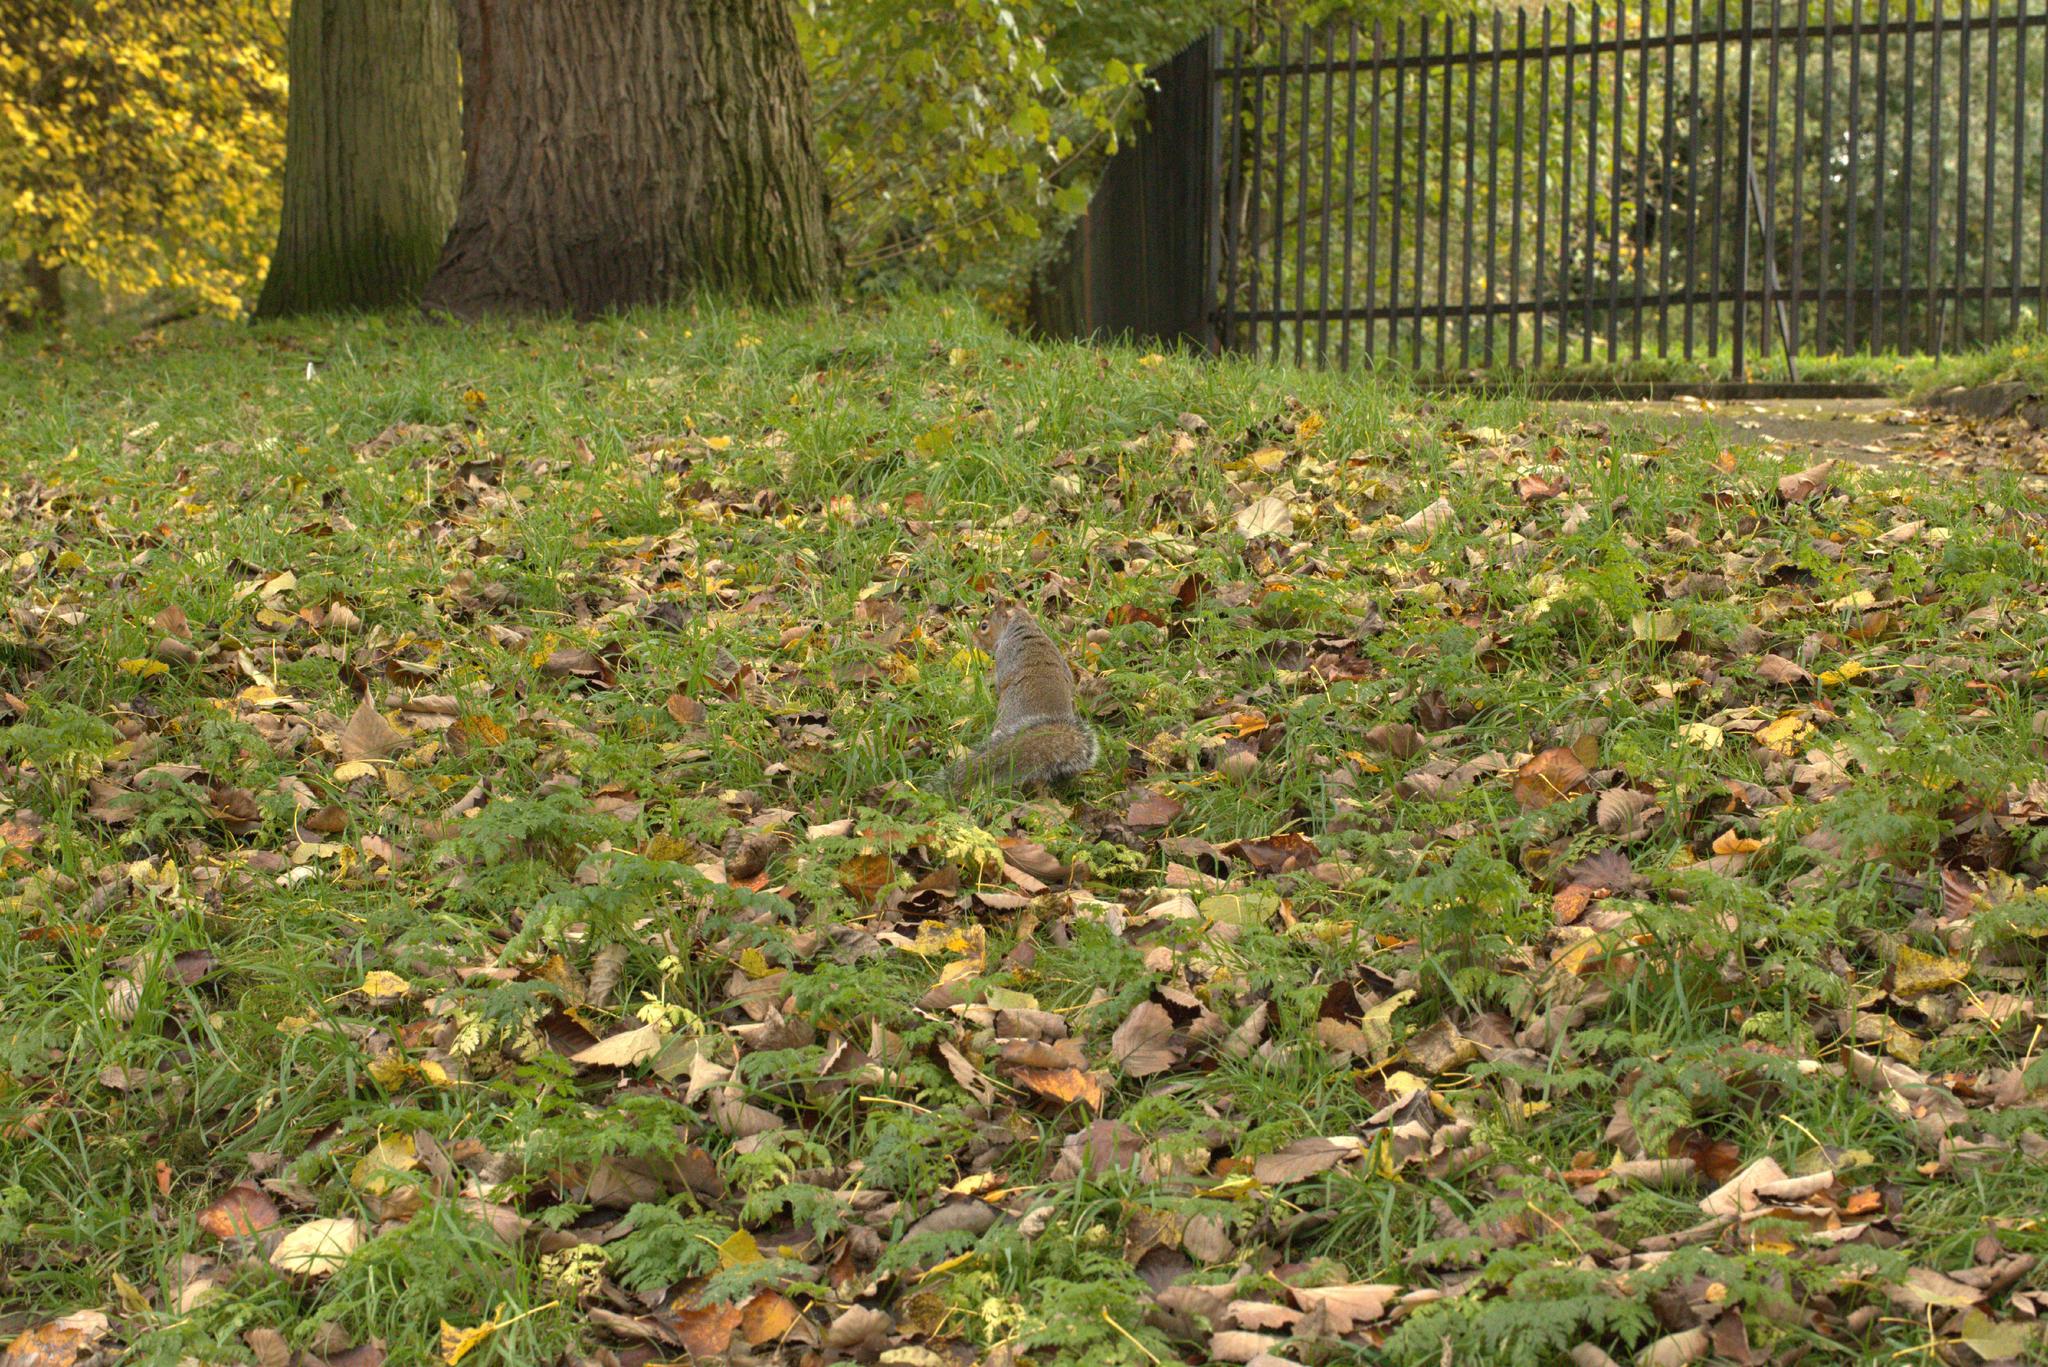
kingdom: Animalia
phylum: Chordata
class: Mammalia
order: Rodentia
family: Sciuridae
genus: Sciurus
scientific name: Sciurus carolinensis
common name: Eastern gray squirrel
